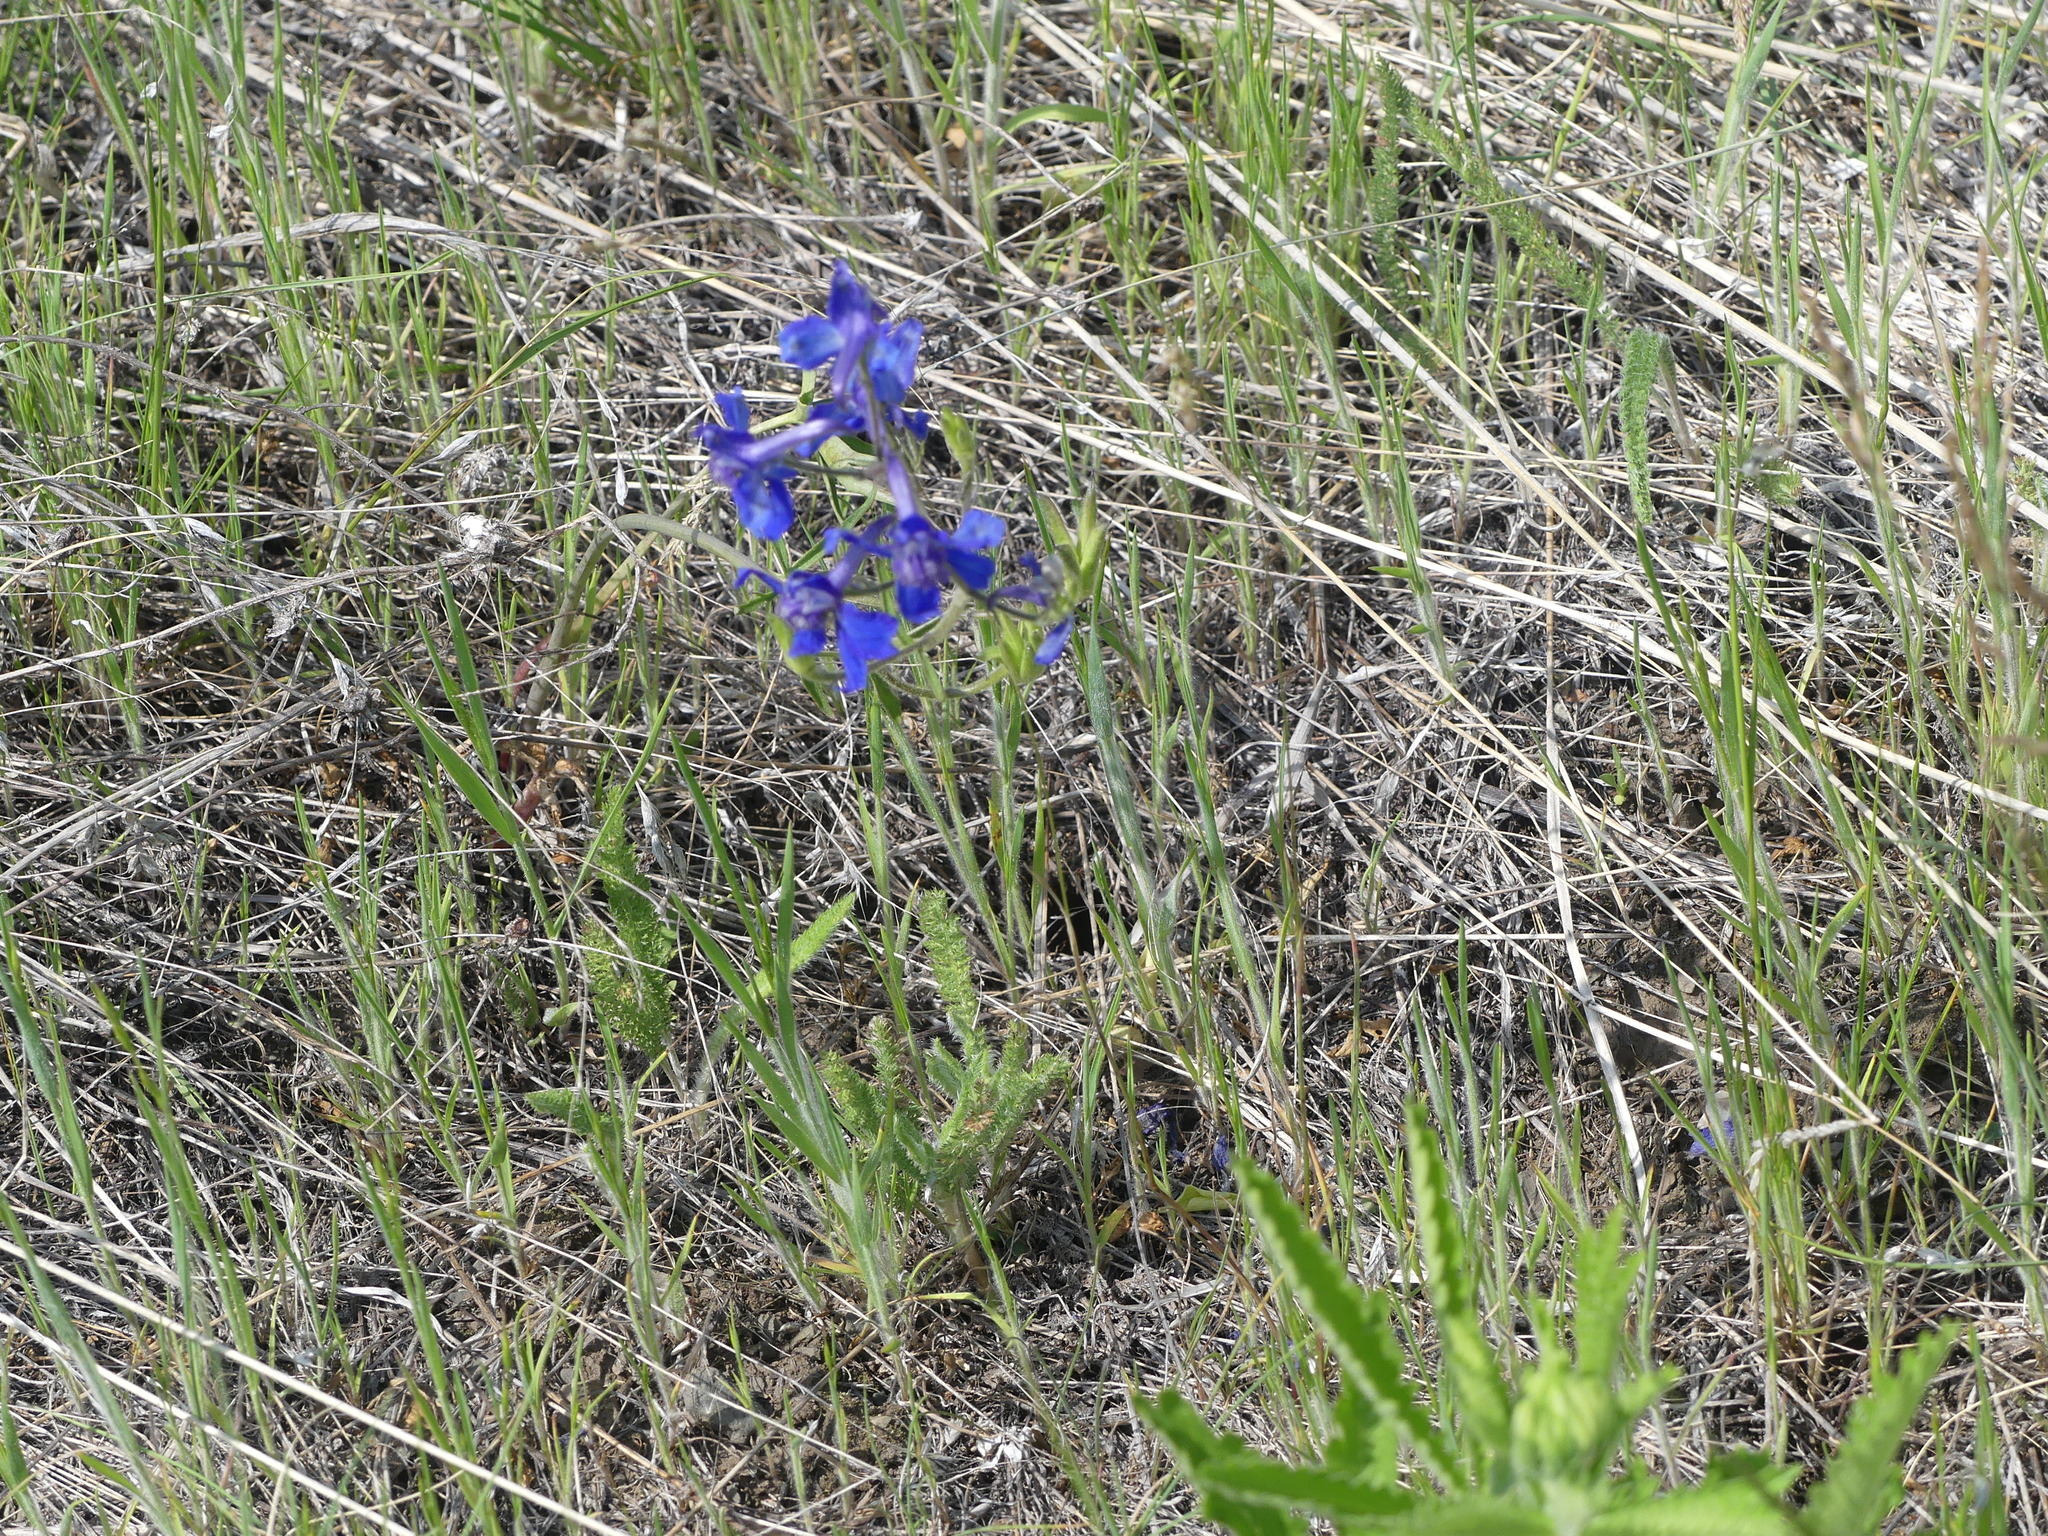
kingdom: Plantae
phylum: Tracheophyta
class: Magnoliopsida
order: Ranunculales
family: Ranunculaceae
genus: Delphinium
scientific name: Delphinium nuttallianum
